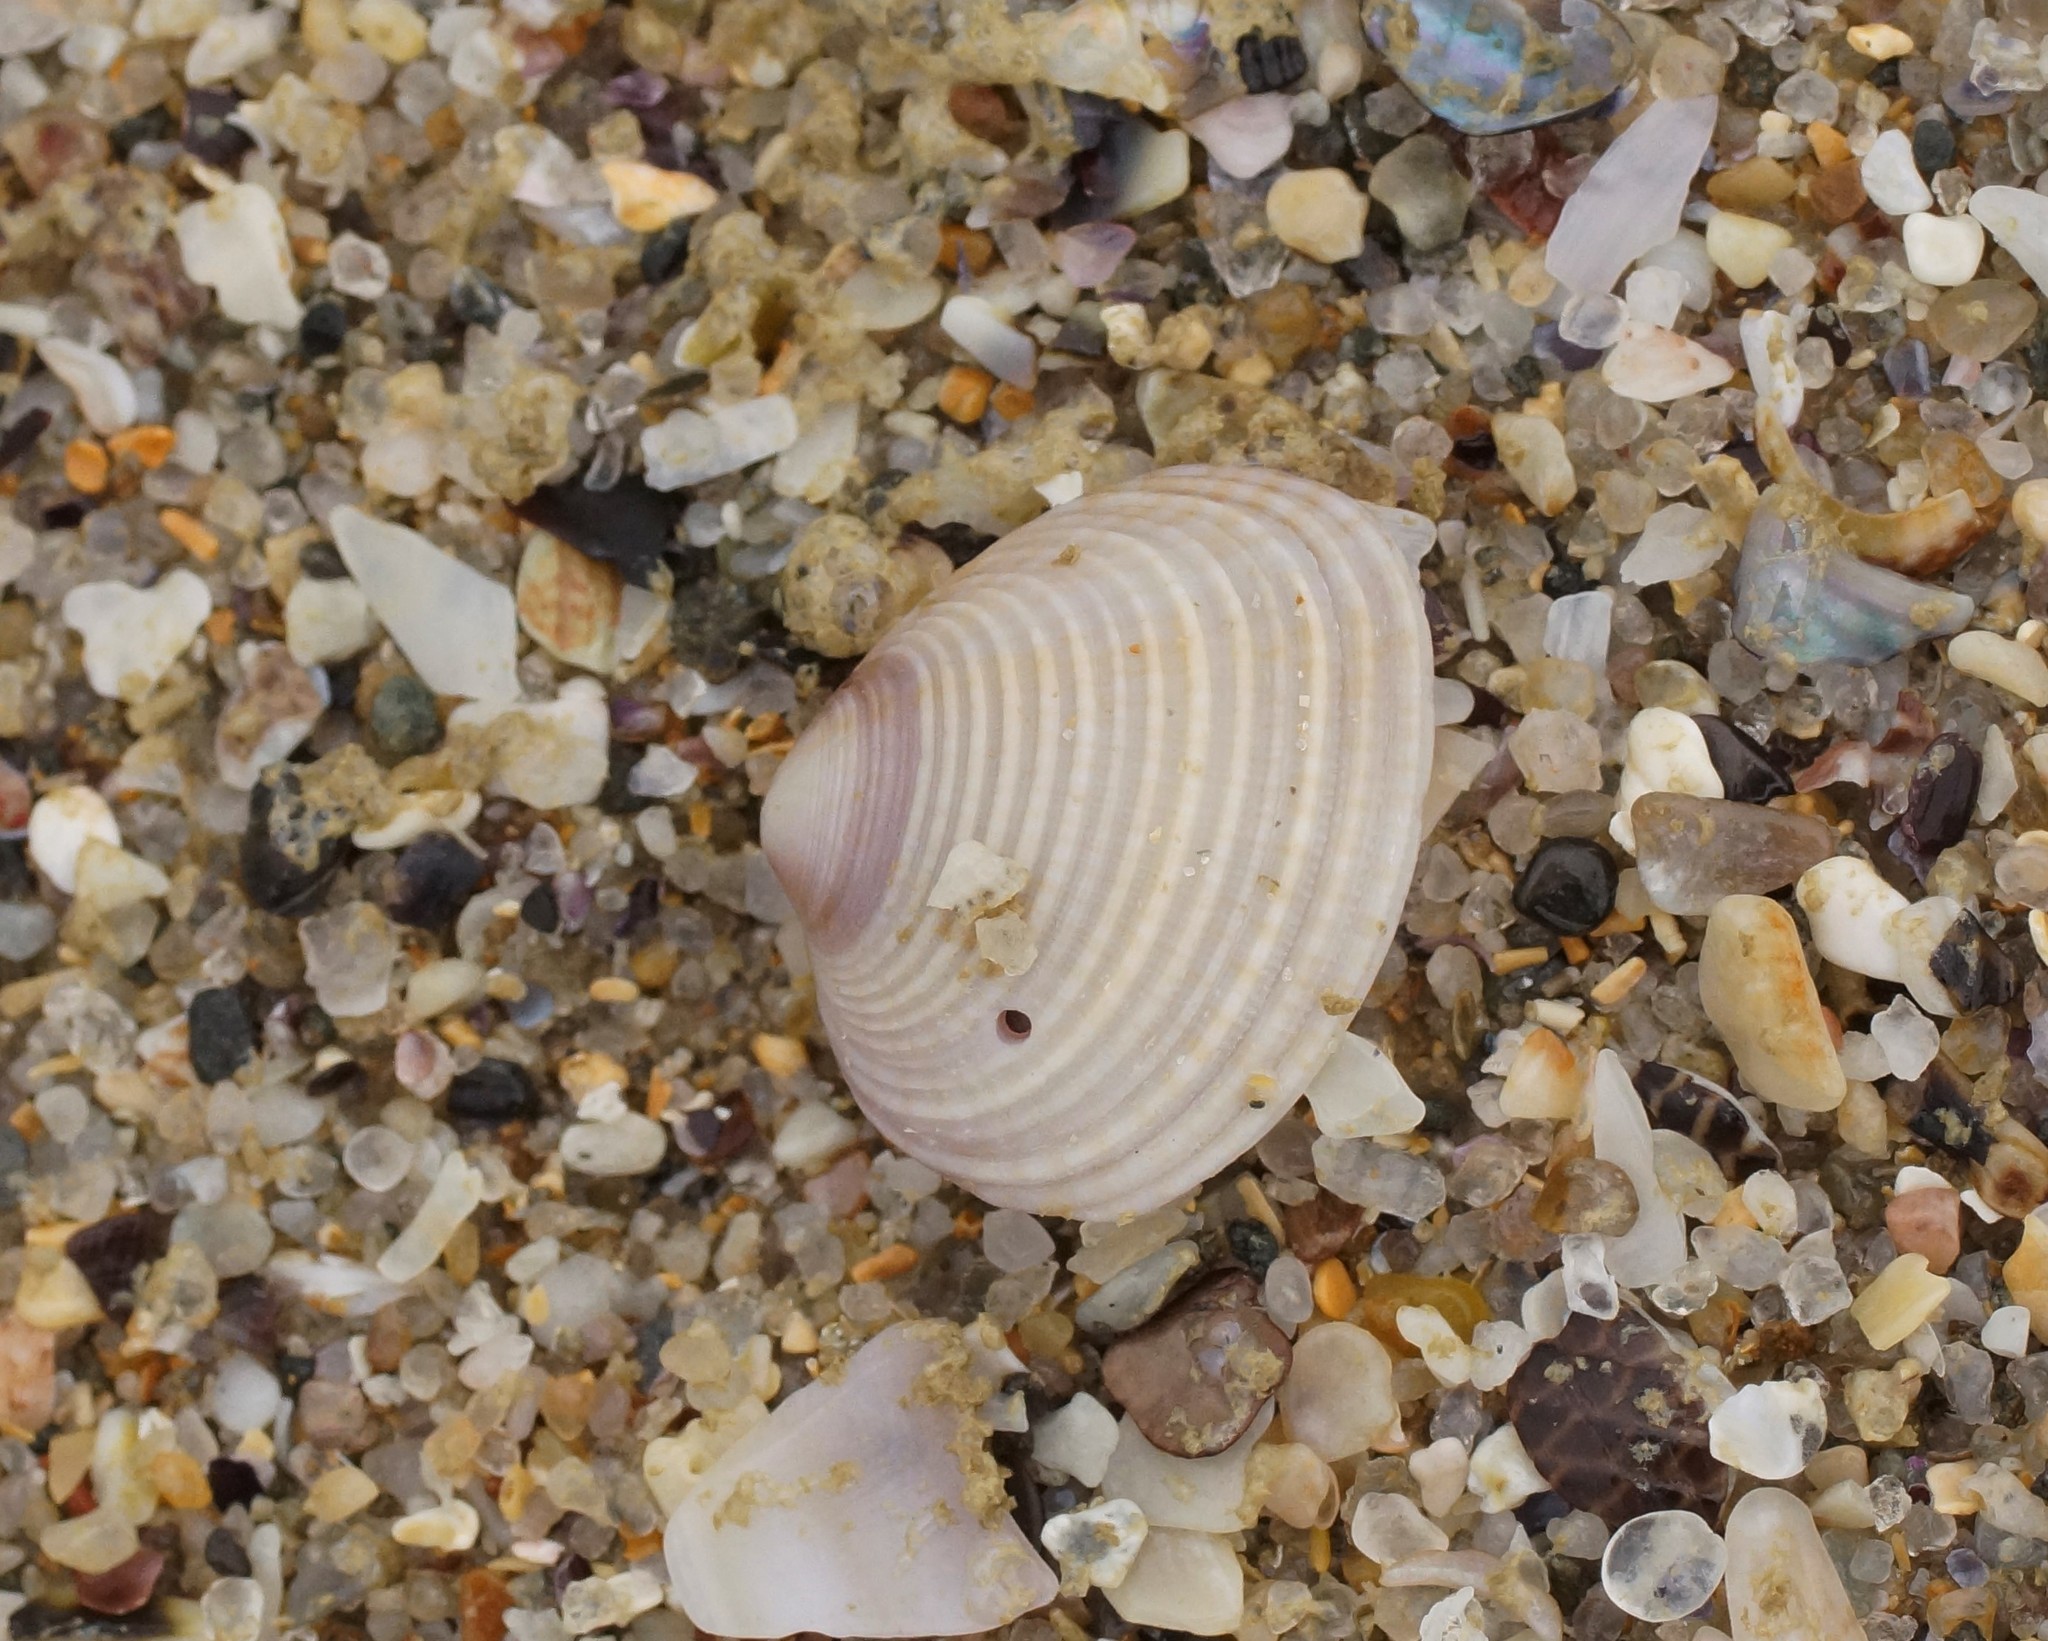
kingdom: Animalia
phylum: Mollusca
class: Bivalvia
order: Venerida
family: Veneridae
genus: Tawera
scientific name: Tawera gallinula
